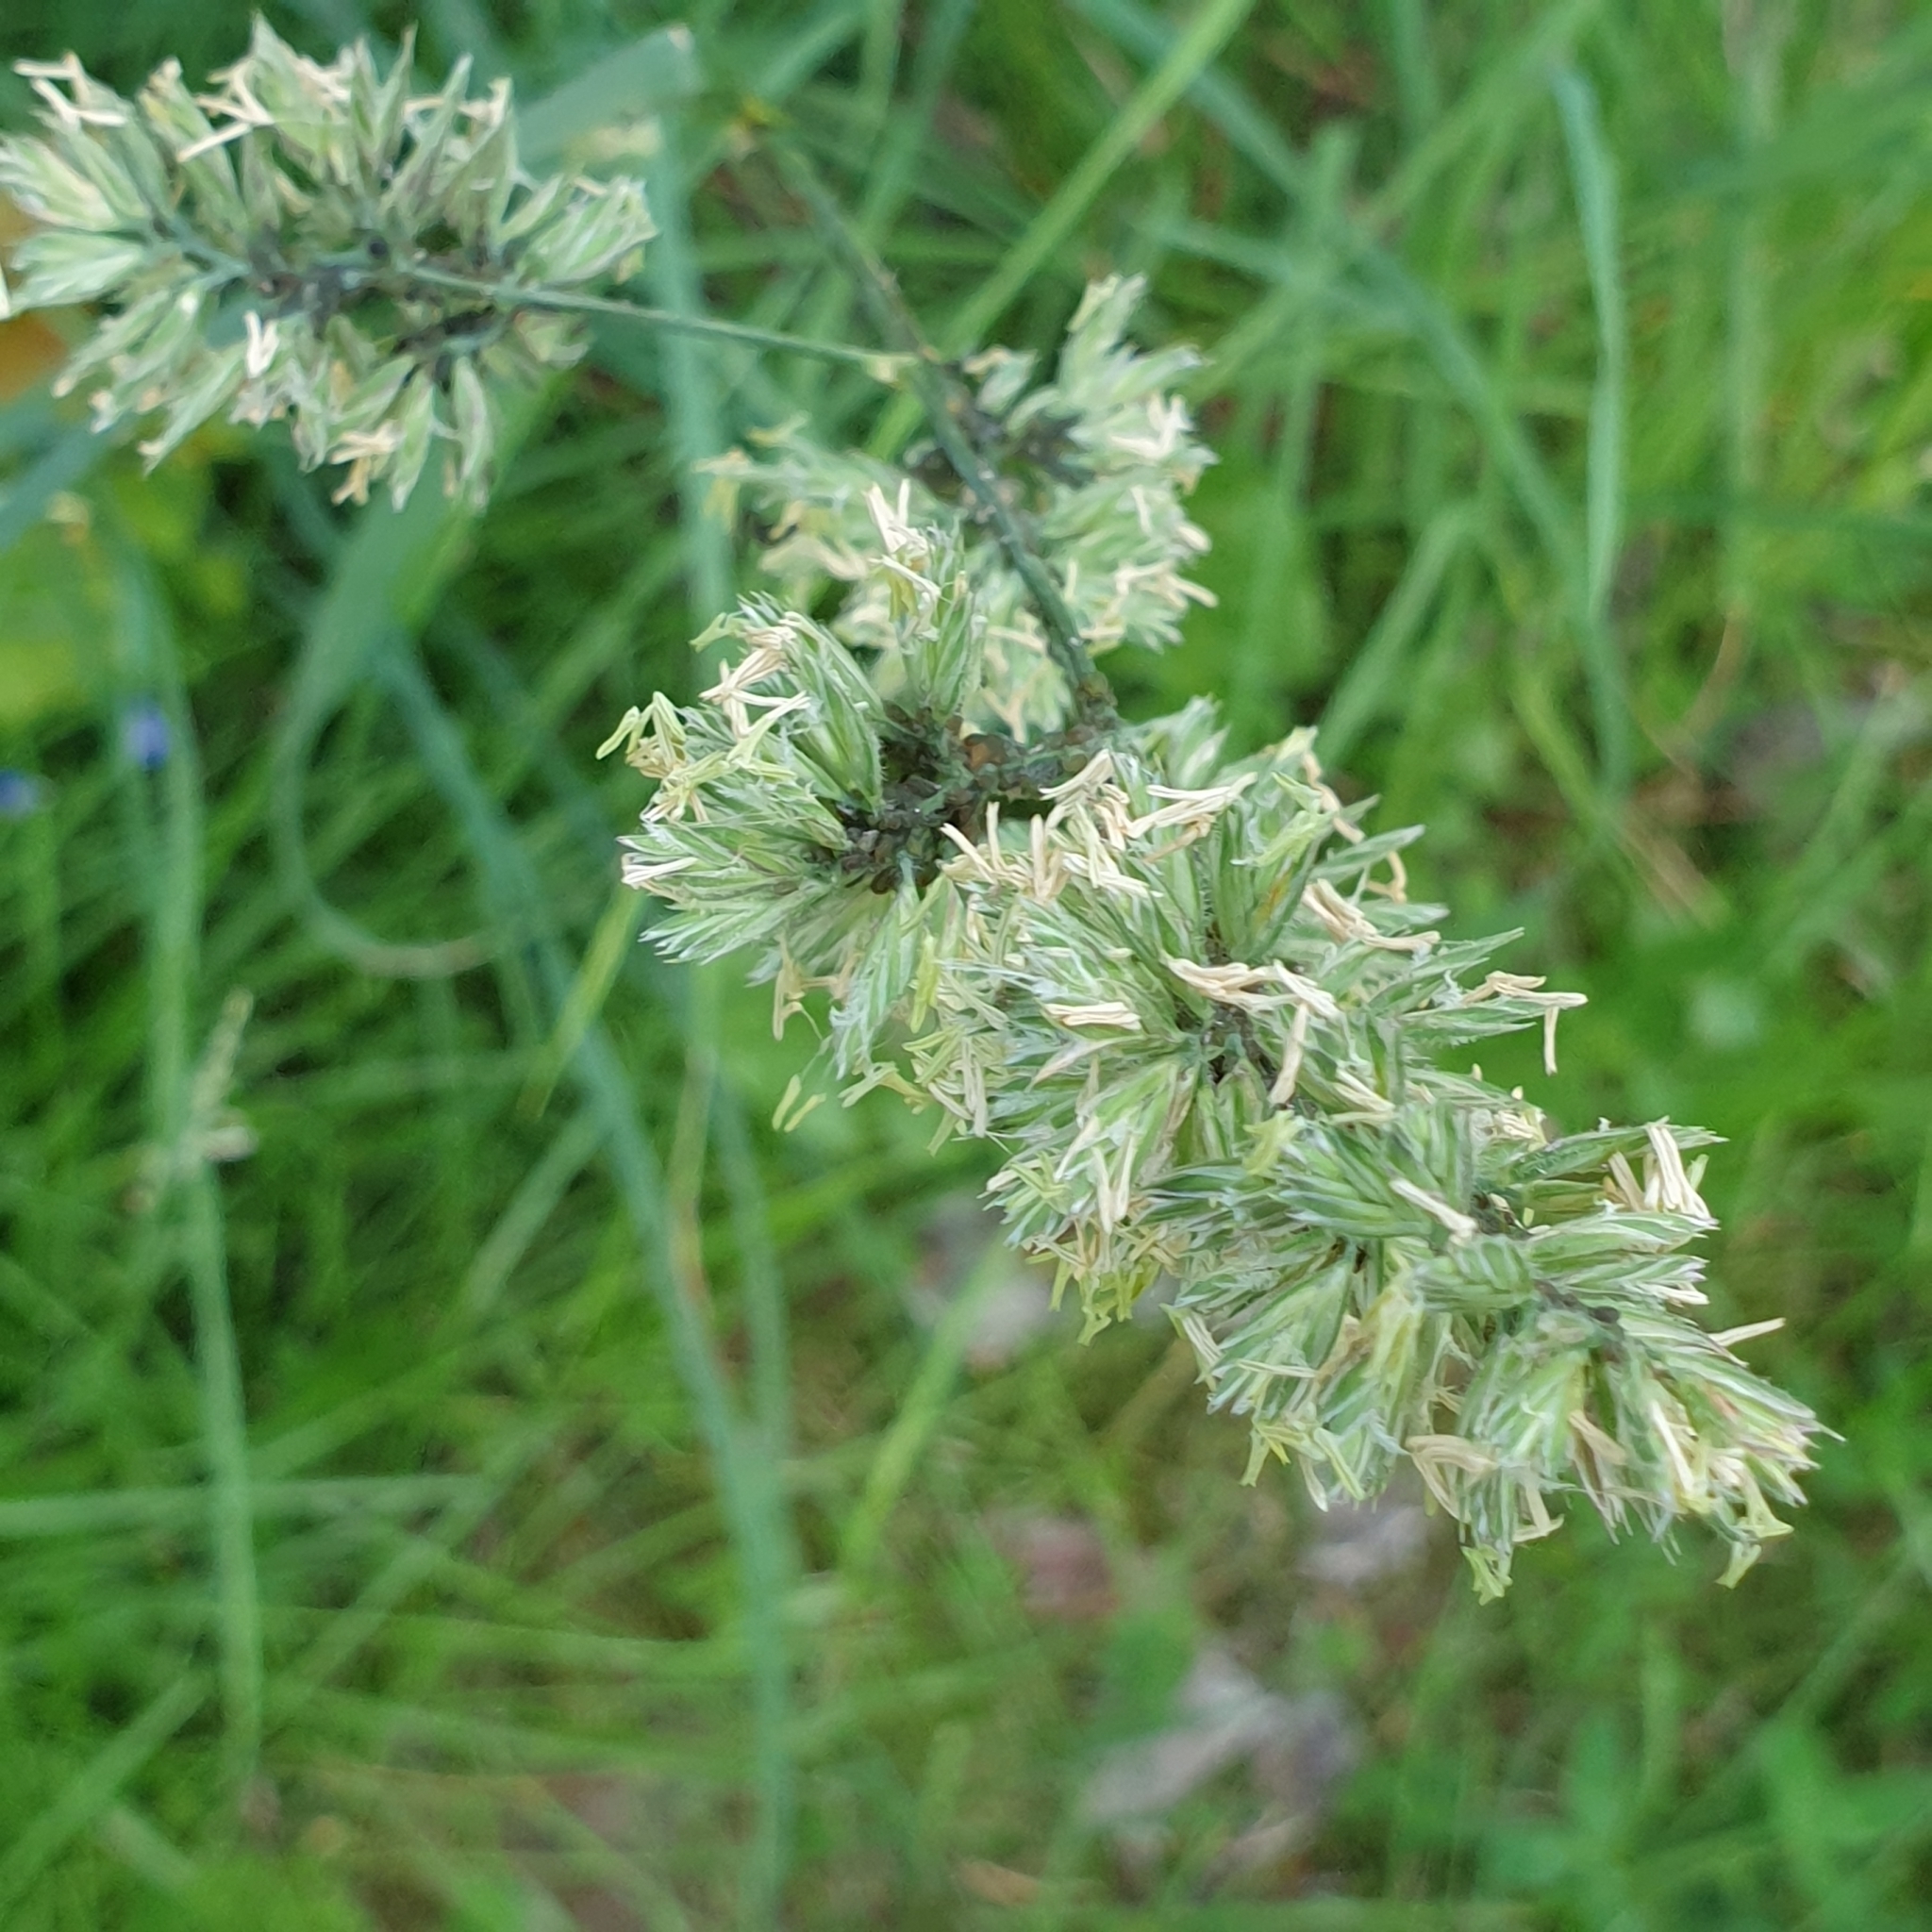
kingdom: Plantae
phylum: Tracheophyta
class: Liliopsida
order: Poales
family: Poaceae
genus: Dactylis
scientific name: Dactylis glomerata
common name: Orchardgrass
